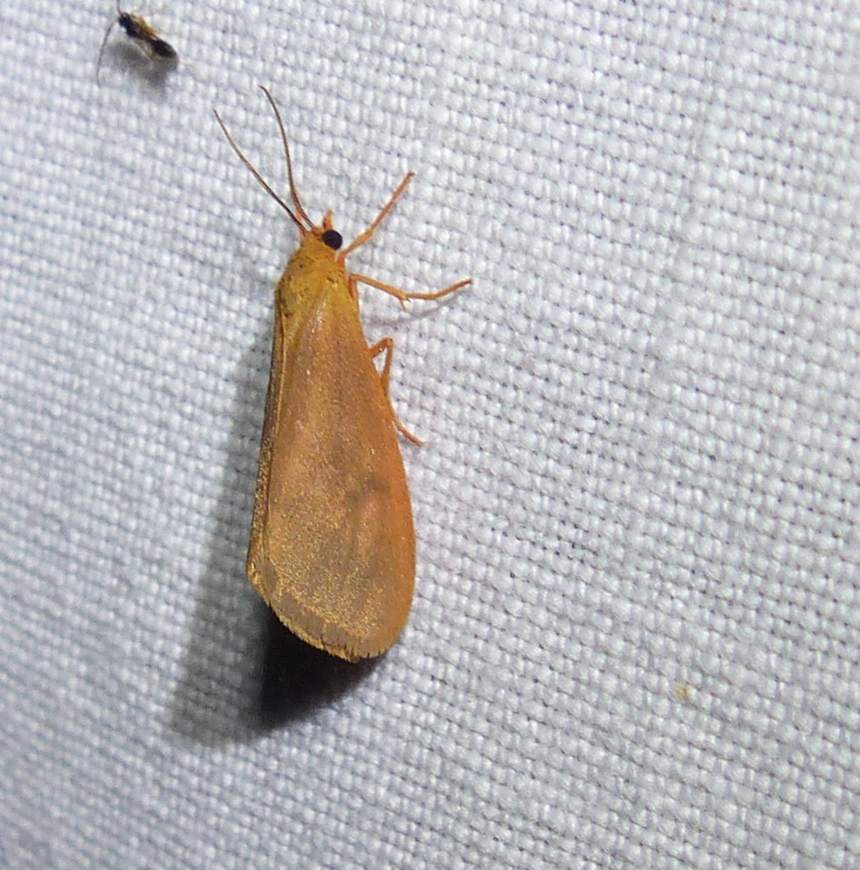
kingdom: Animalia
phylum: Arthropoda
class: Insecta
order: Lepidoptera
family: Erebidae
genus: Virbia
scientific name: Virbia immaculata
